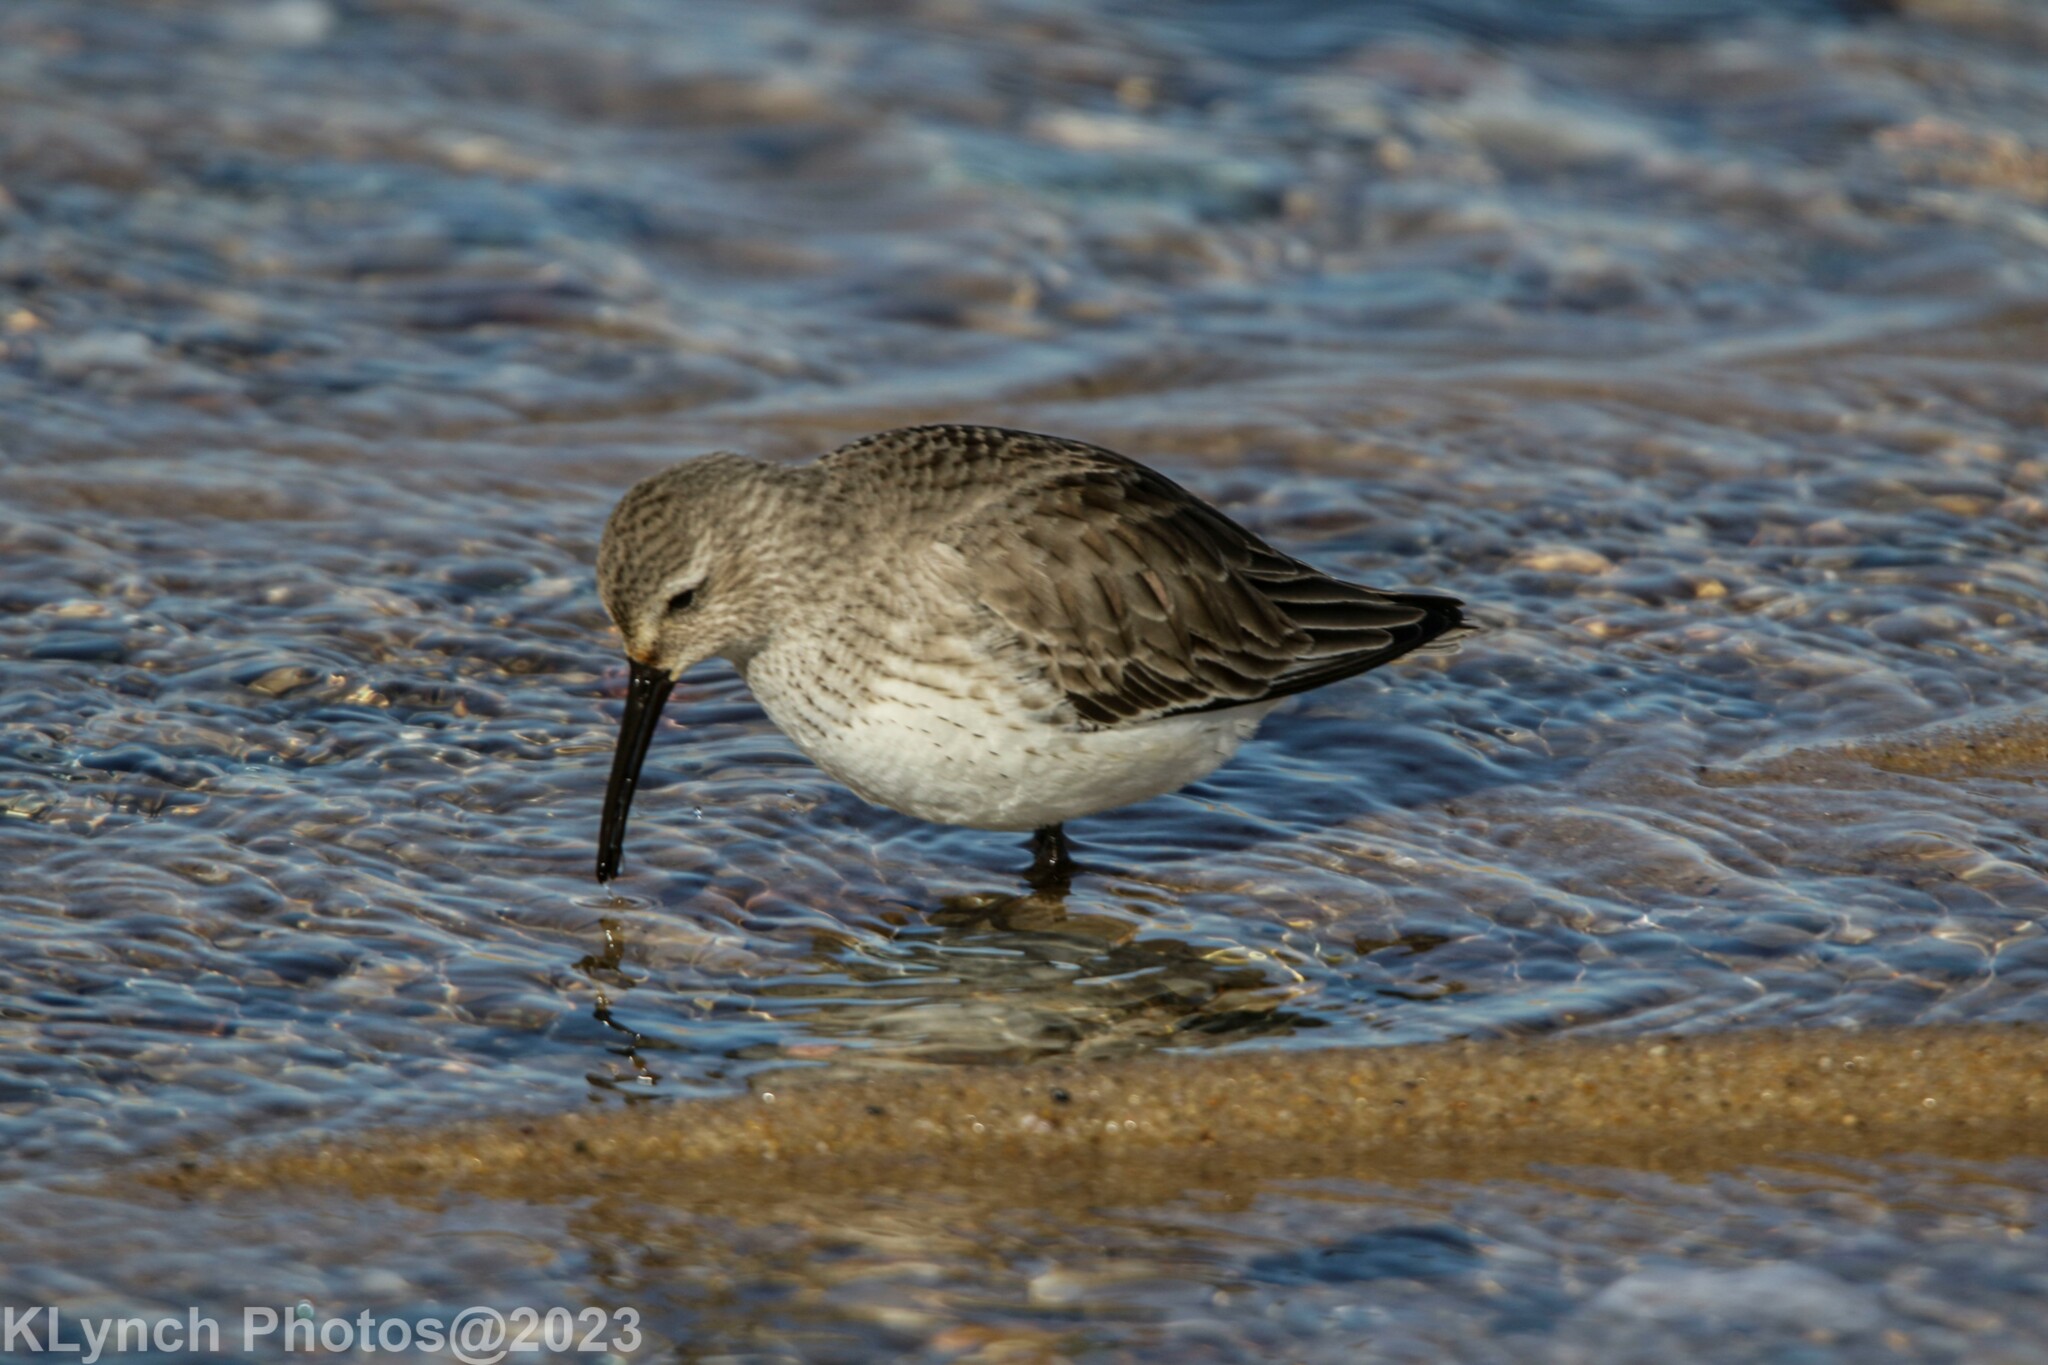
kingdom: Animalia
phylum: Chordata
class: Aves
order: Charadriiformes
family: Scolopacidae
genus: Calidris
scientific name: Calidris alpina
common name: Dunlin
